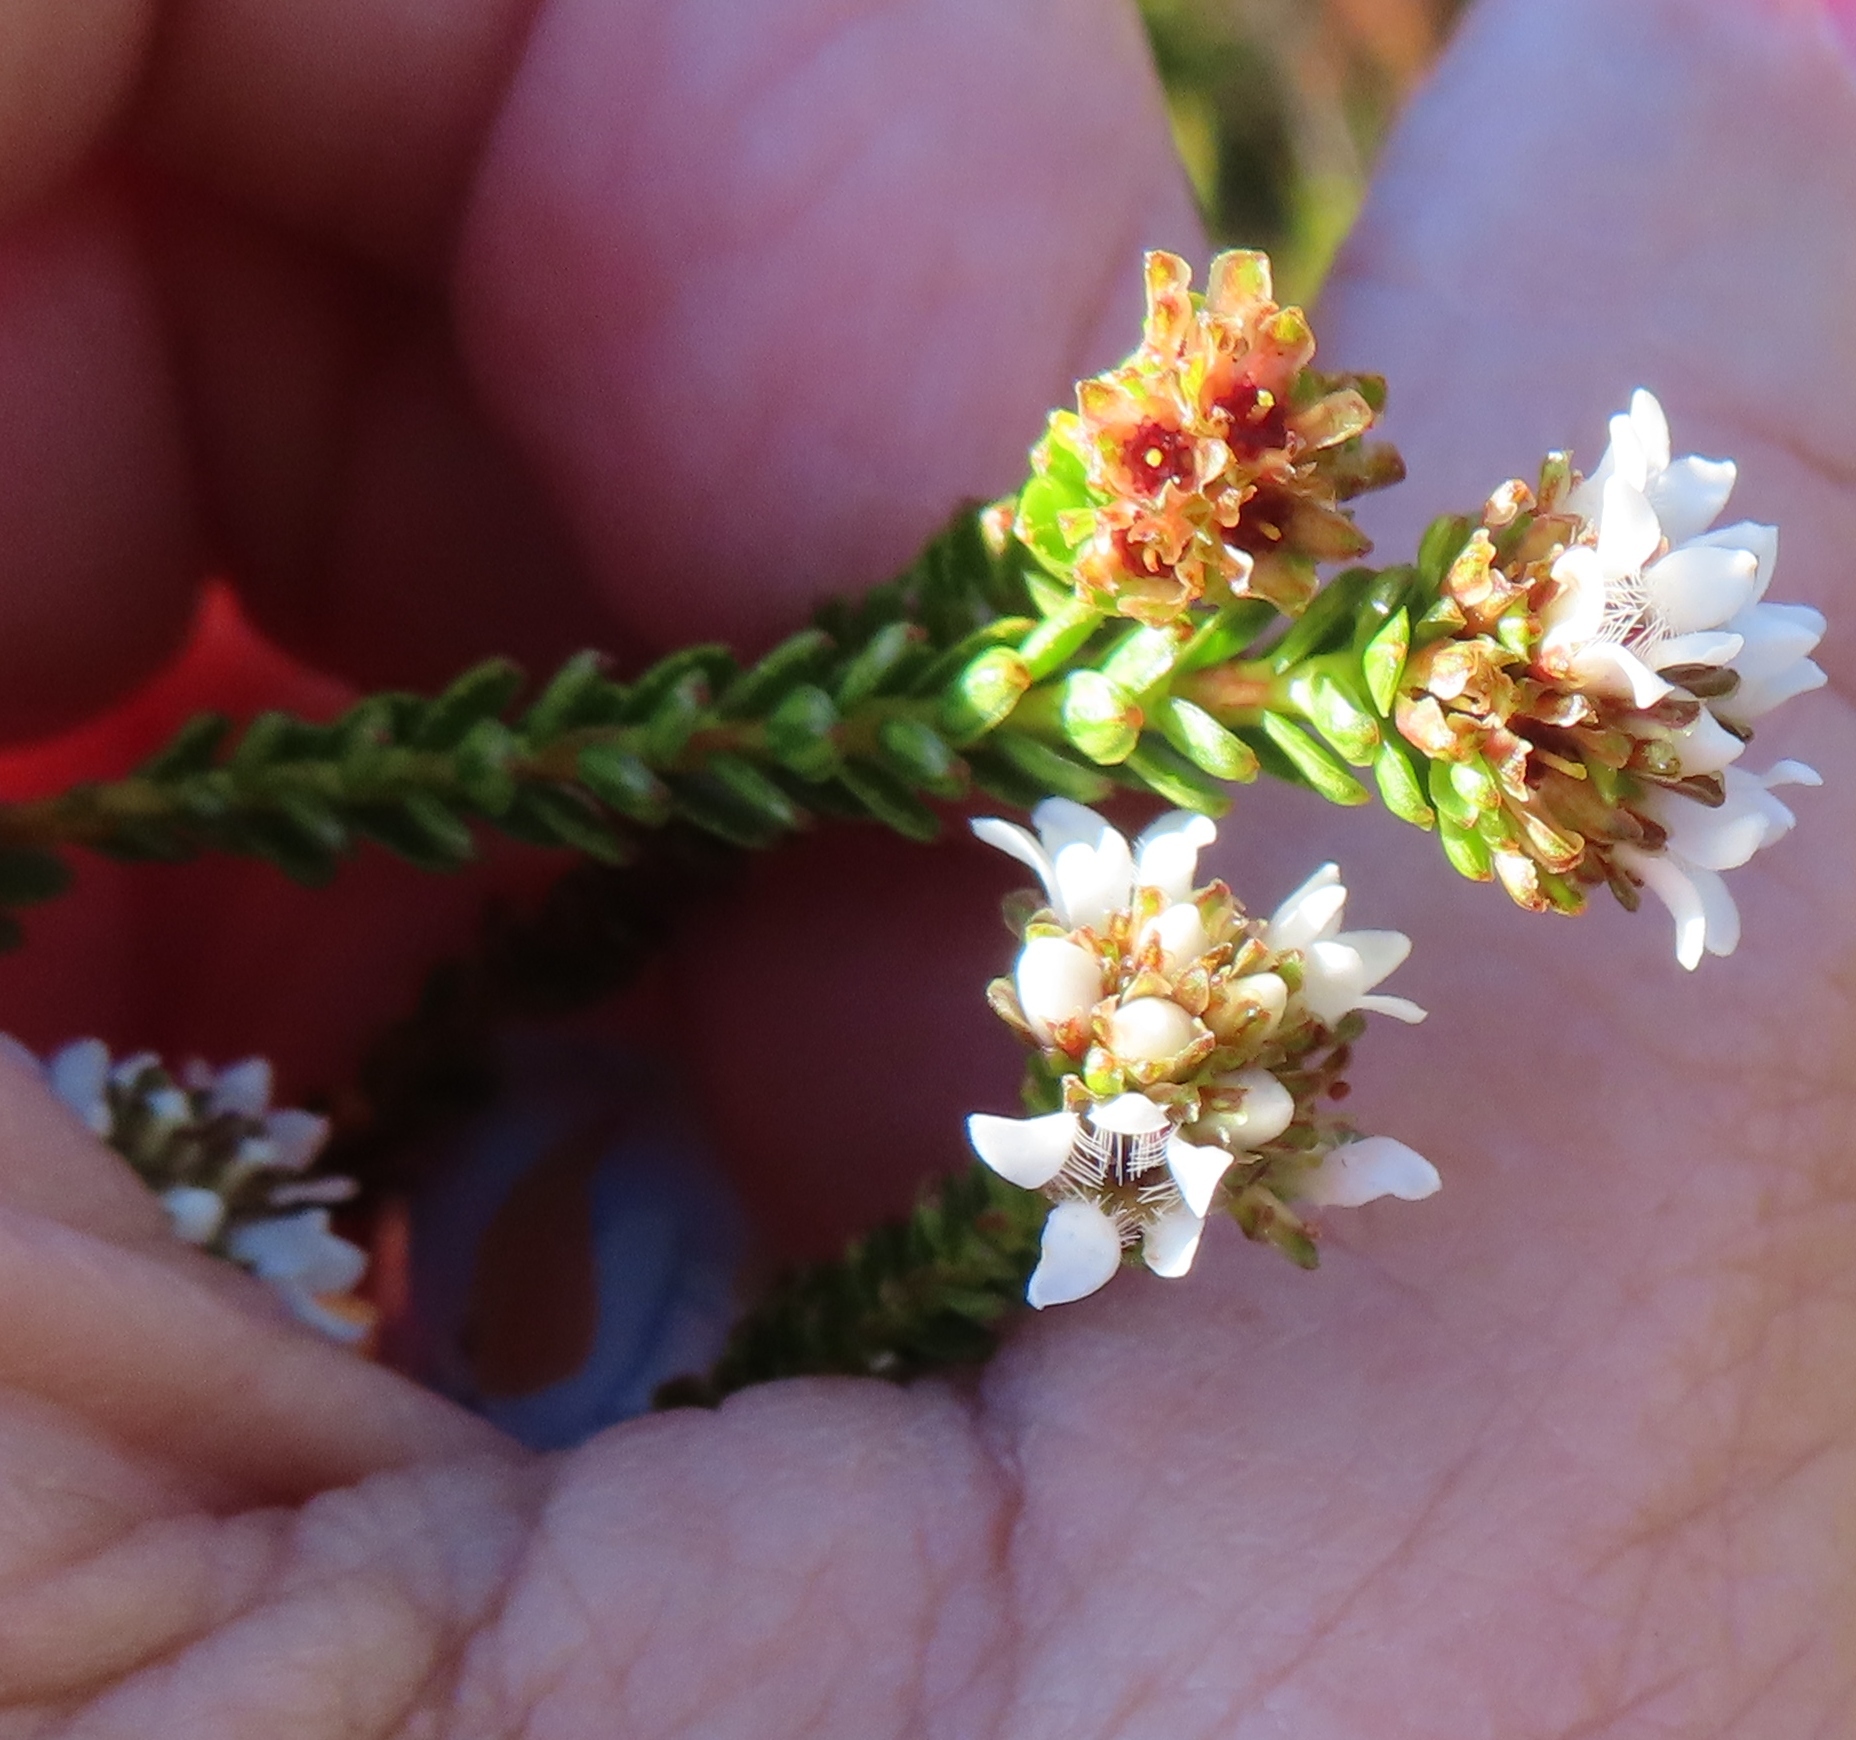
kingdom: Plantae
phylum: Tracheophyta
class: Magnoliopsida
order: Sapindales
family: Rutaceae
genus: Euchaetis
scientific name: Euchaetis glabra
